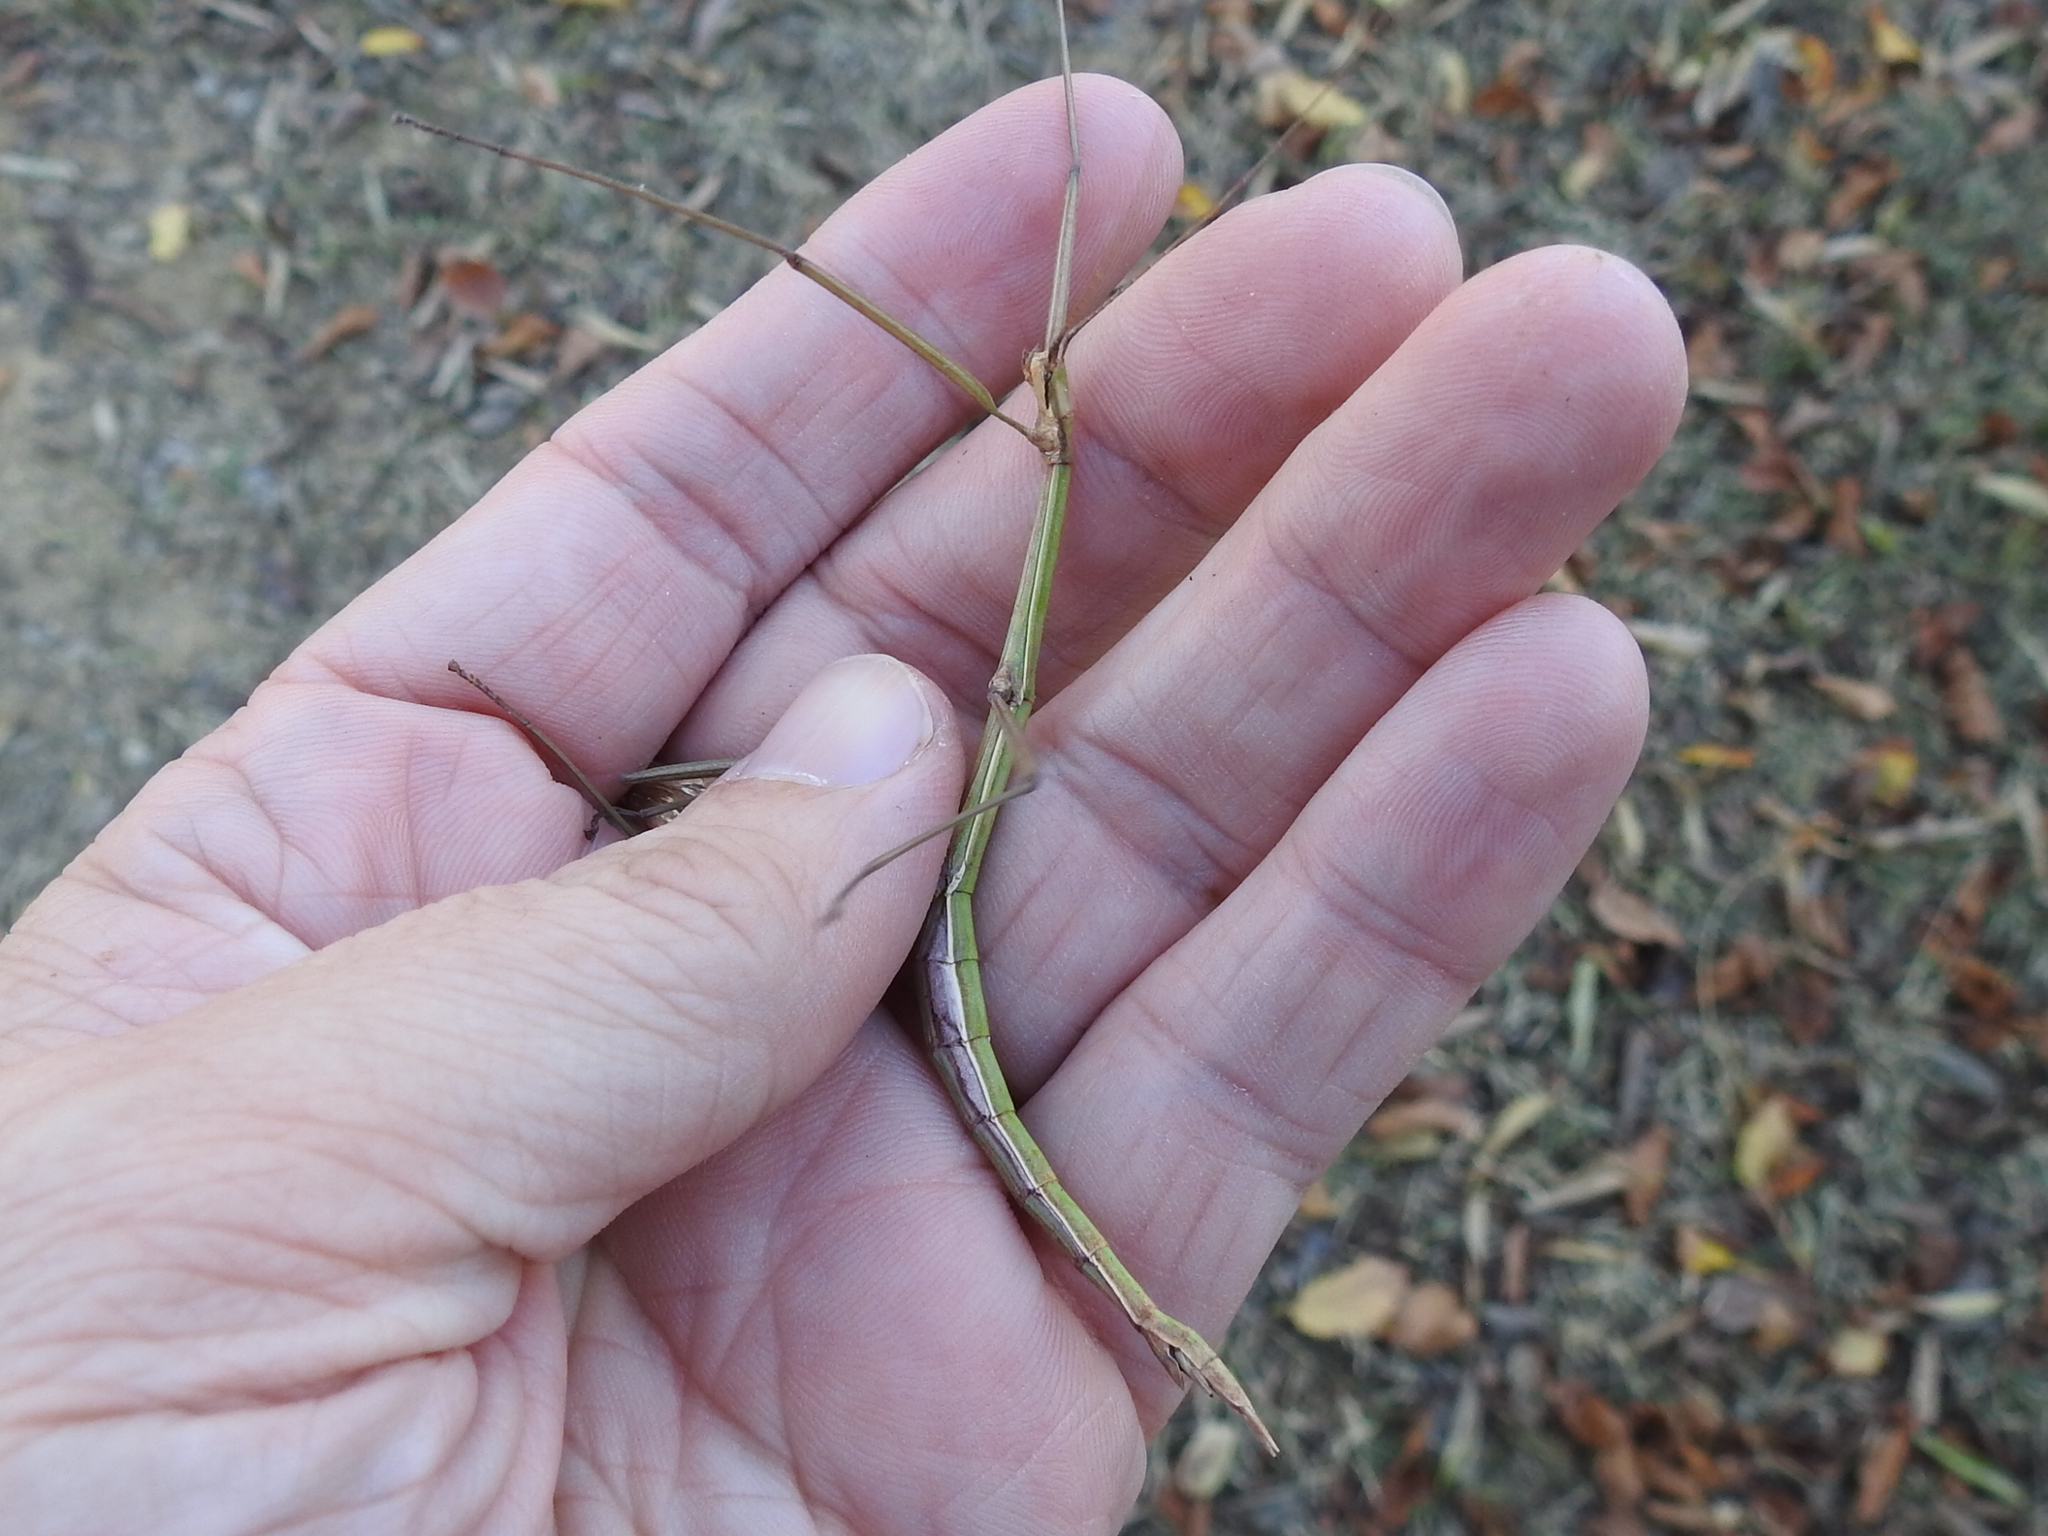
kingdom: Animalia
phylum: Arthropoda
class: Insecta
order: Phasmida
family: Diapheromeridae
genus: Megaphasma
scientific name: Megaphasma denticrus
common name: Giant walkingstick
